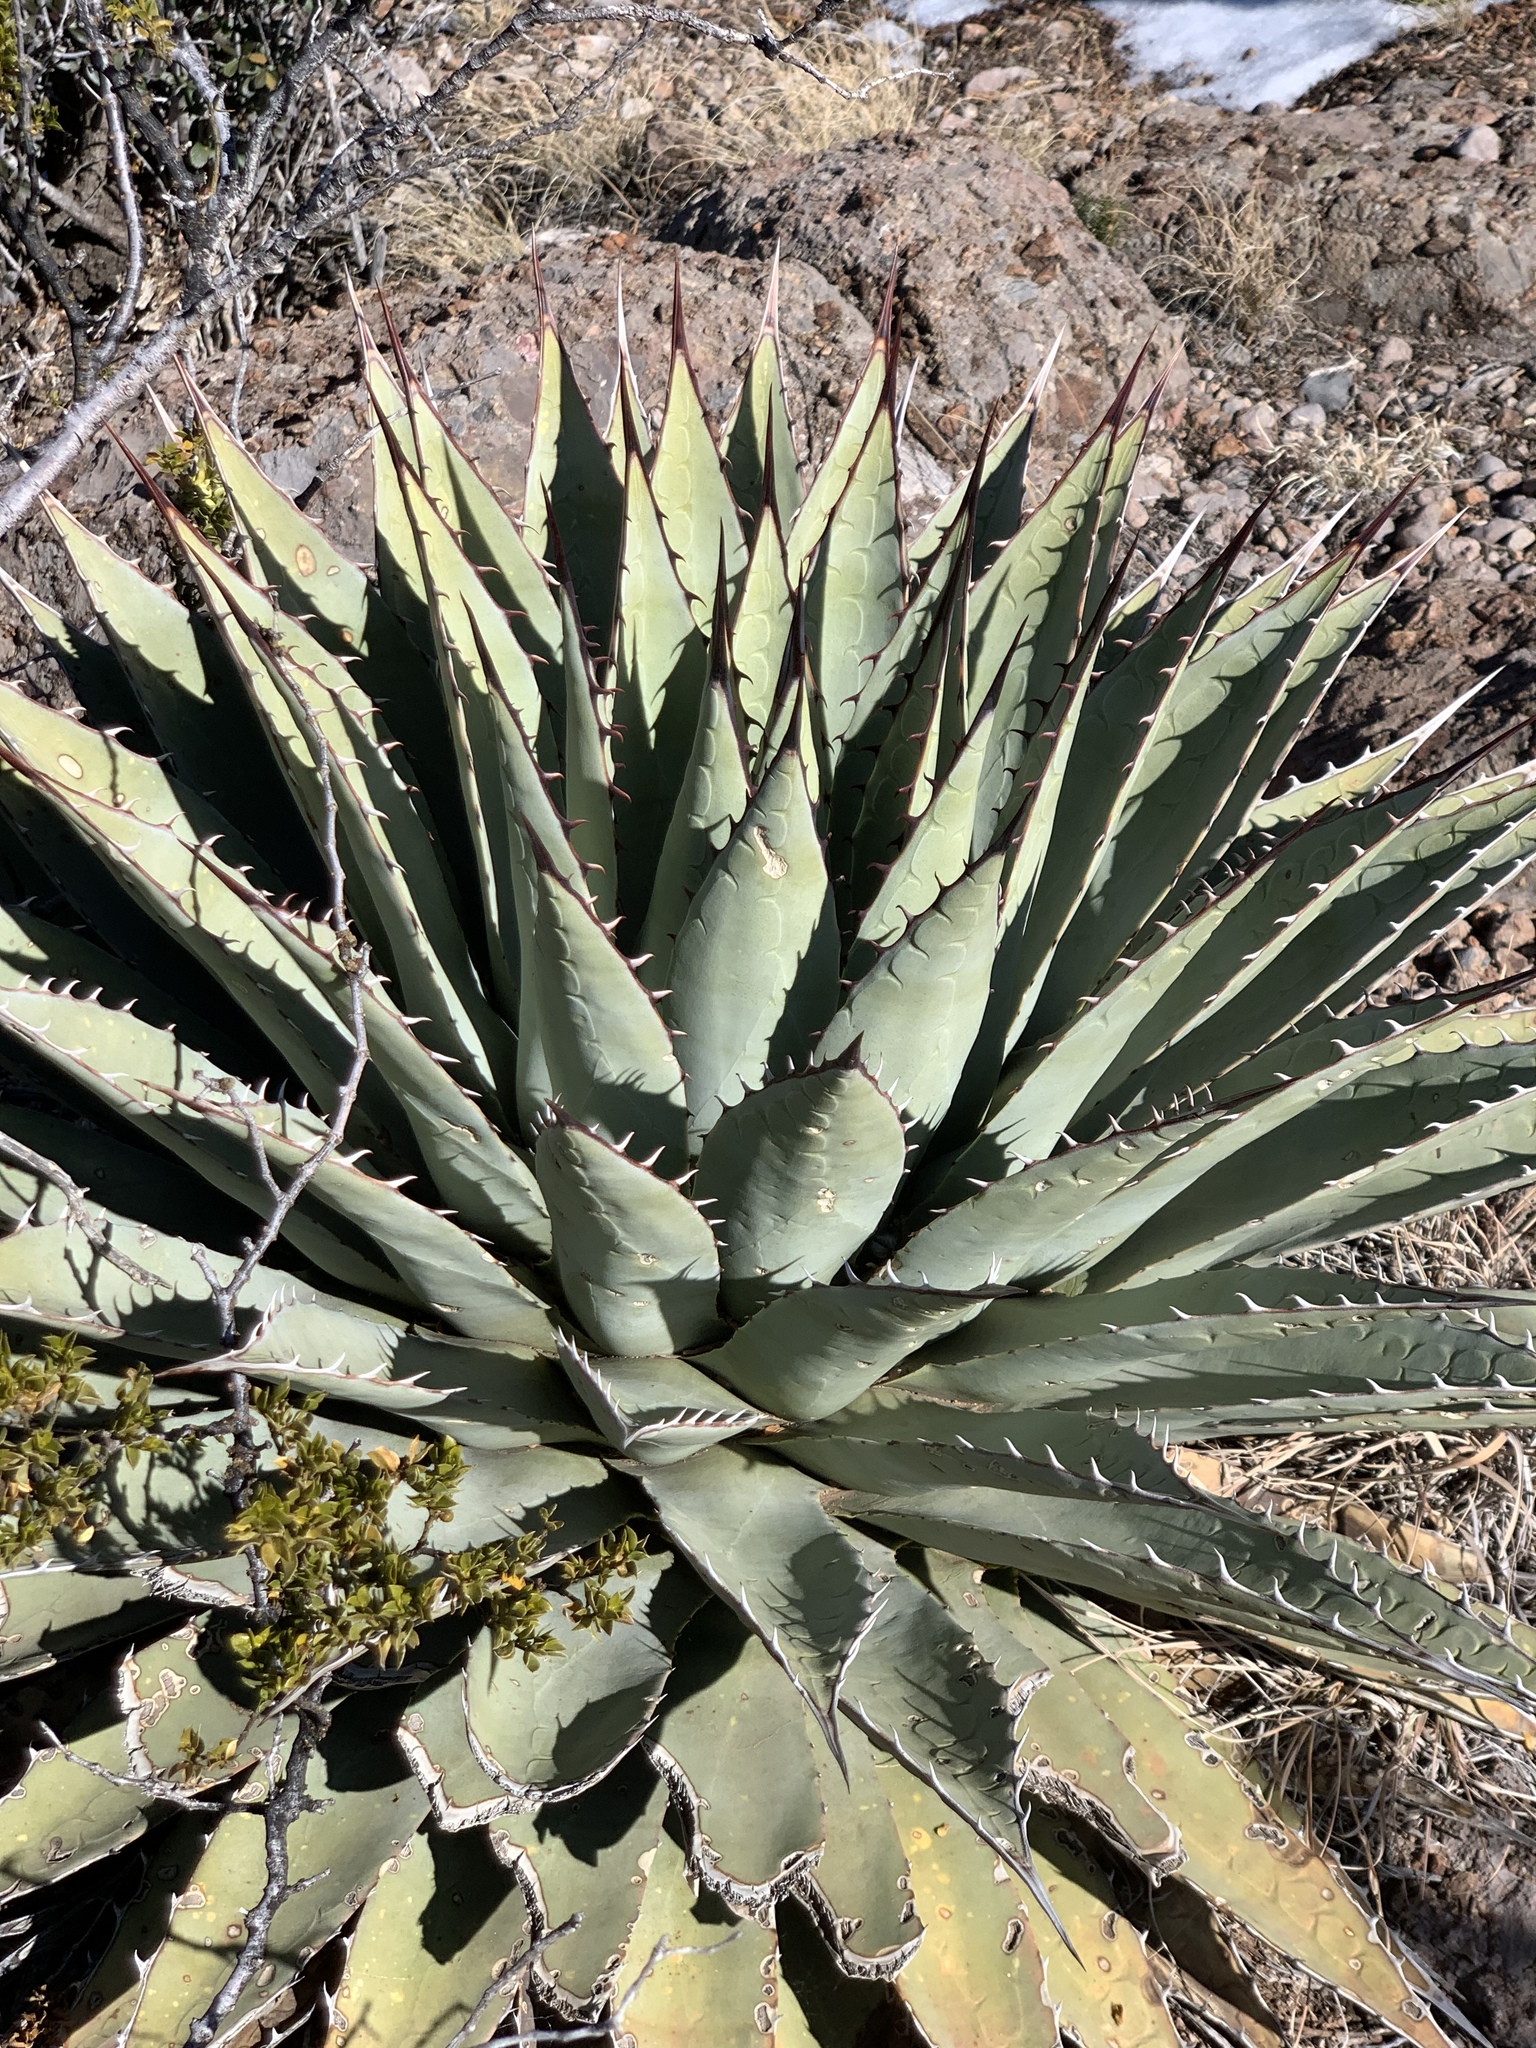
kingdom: Plantae
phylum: Tracheophyta
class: Liliopsida
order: Asparagales
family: Asparagaceae
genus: Agave
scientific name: Agave parryi
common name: Parry's agave
